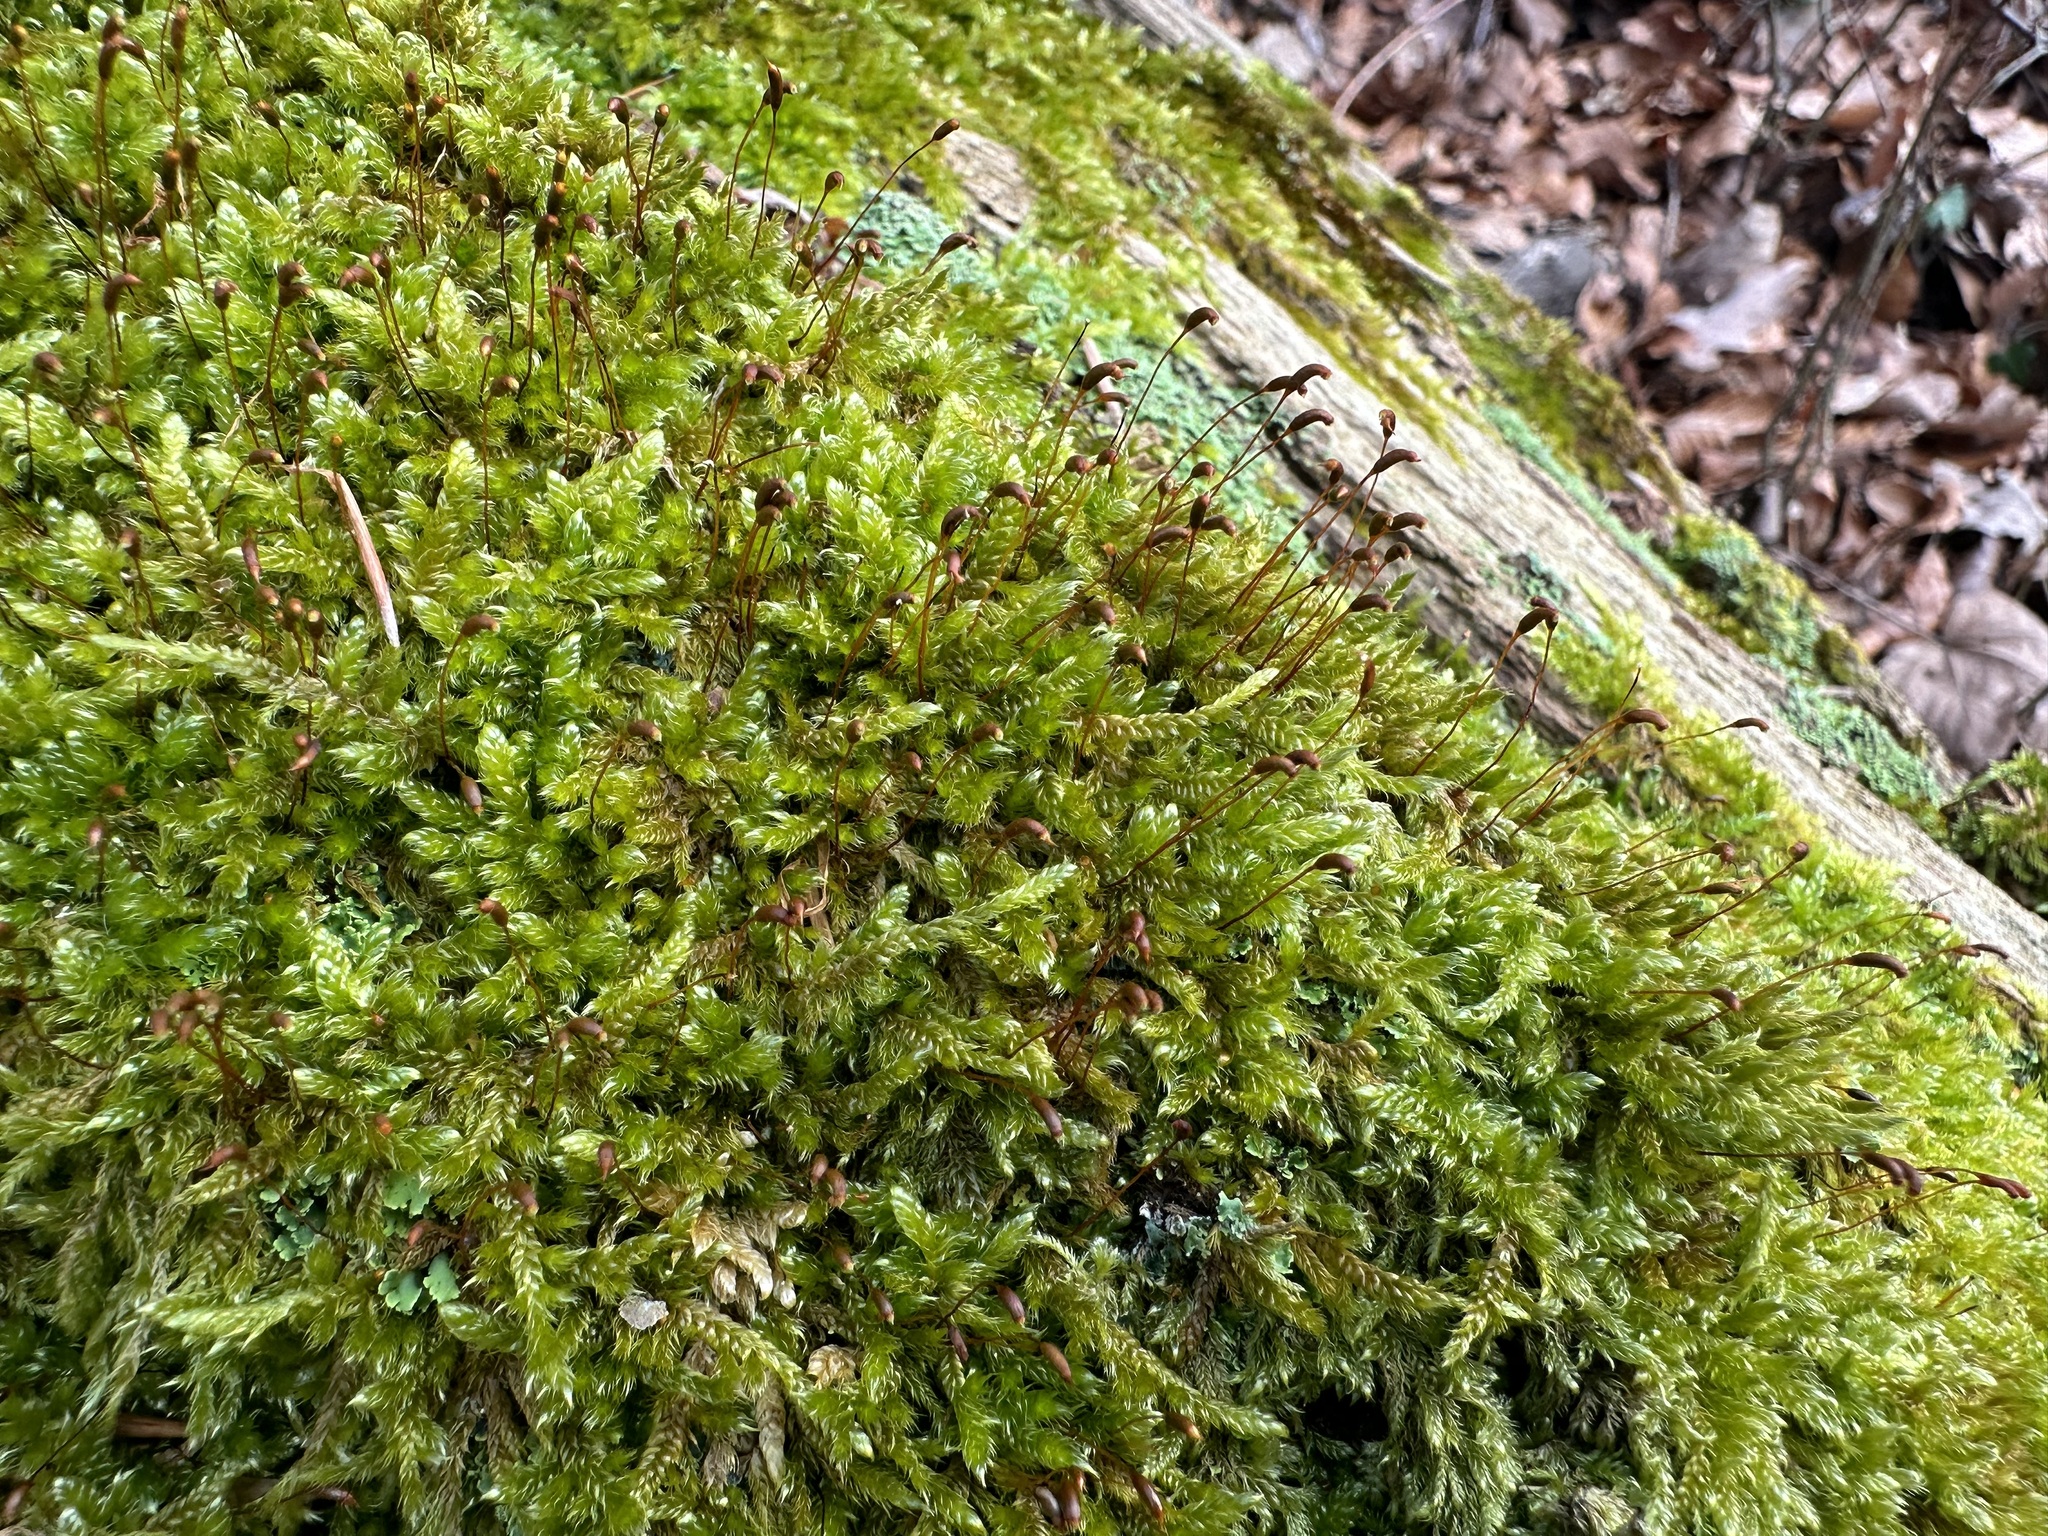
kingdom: Plantae
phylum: Bryophyta
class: Bryopsida
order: Hypnales
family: Hypnaceae
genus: Hypnum
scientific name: Hypnum cupressiforme
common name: Cypress-leaved plait-moss
